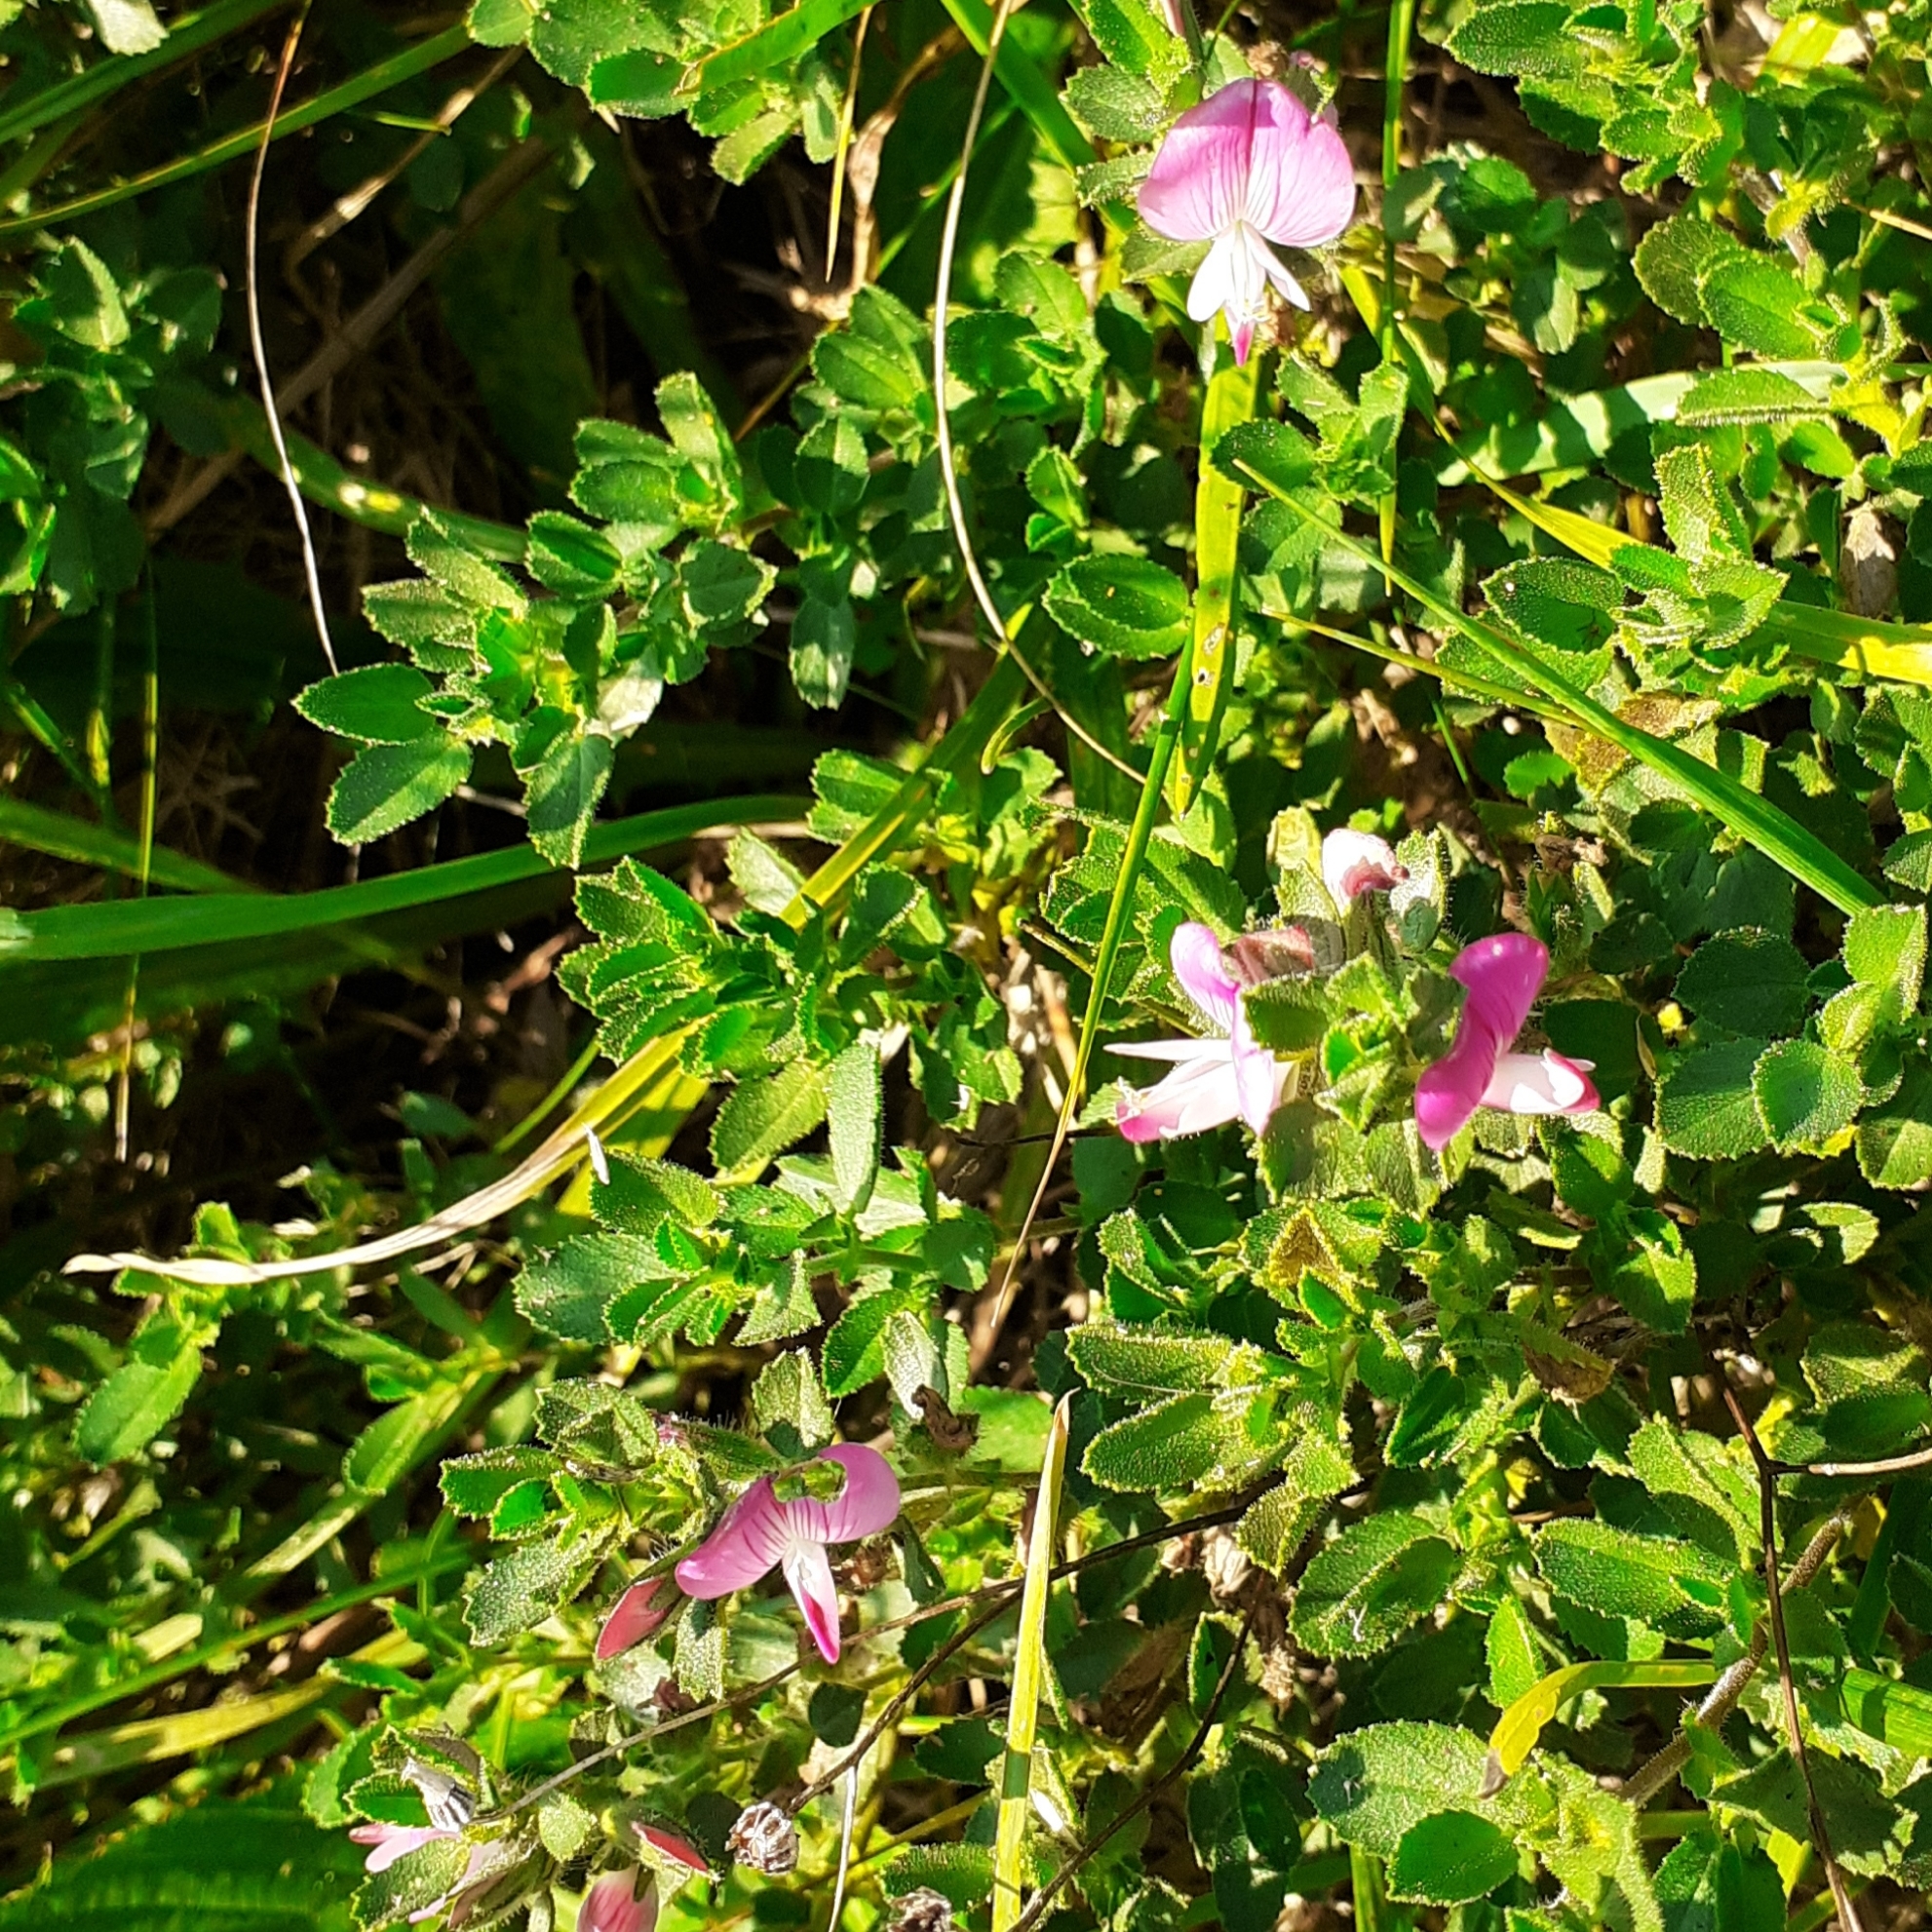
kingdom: Plantae
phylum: Tracheophyta
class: Magnoliopsida
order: Fabales
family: Fabaceae
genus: Ononis
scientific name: Ononis spinosa
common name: Spiny restharrow
